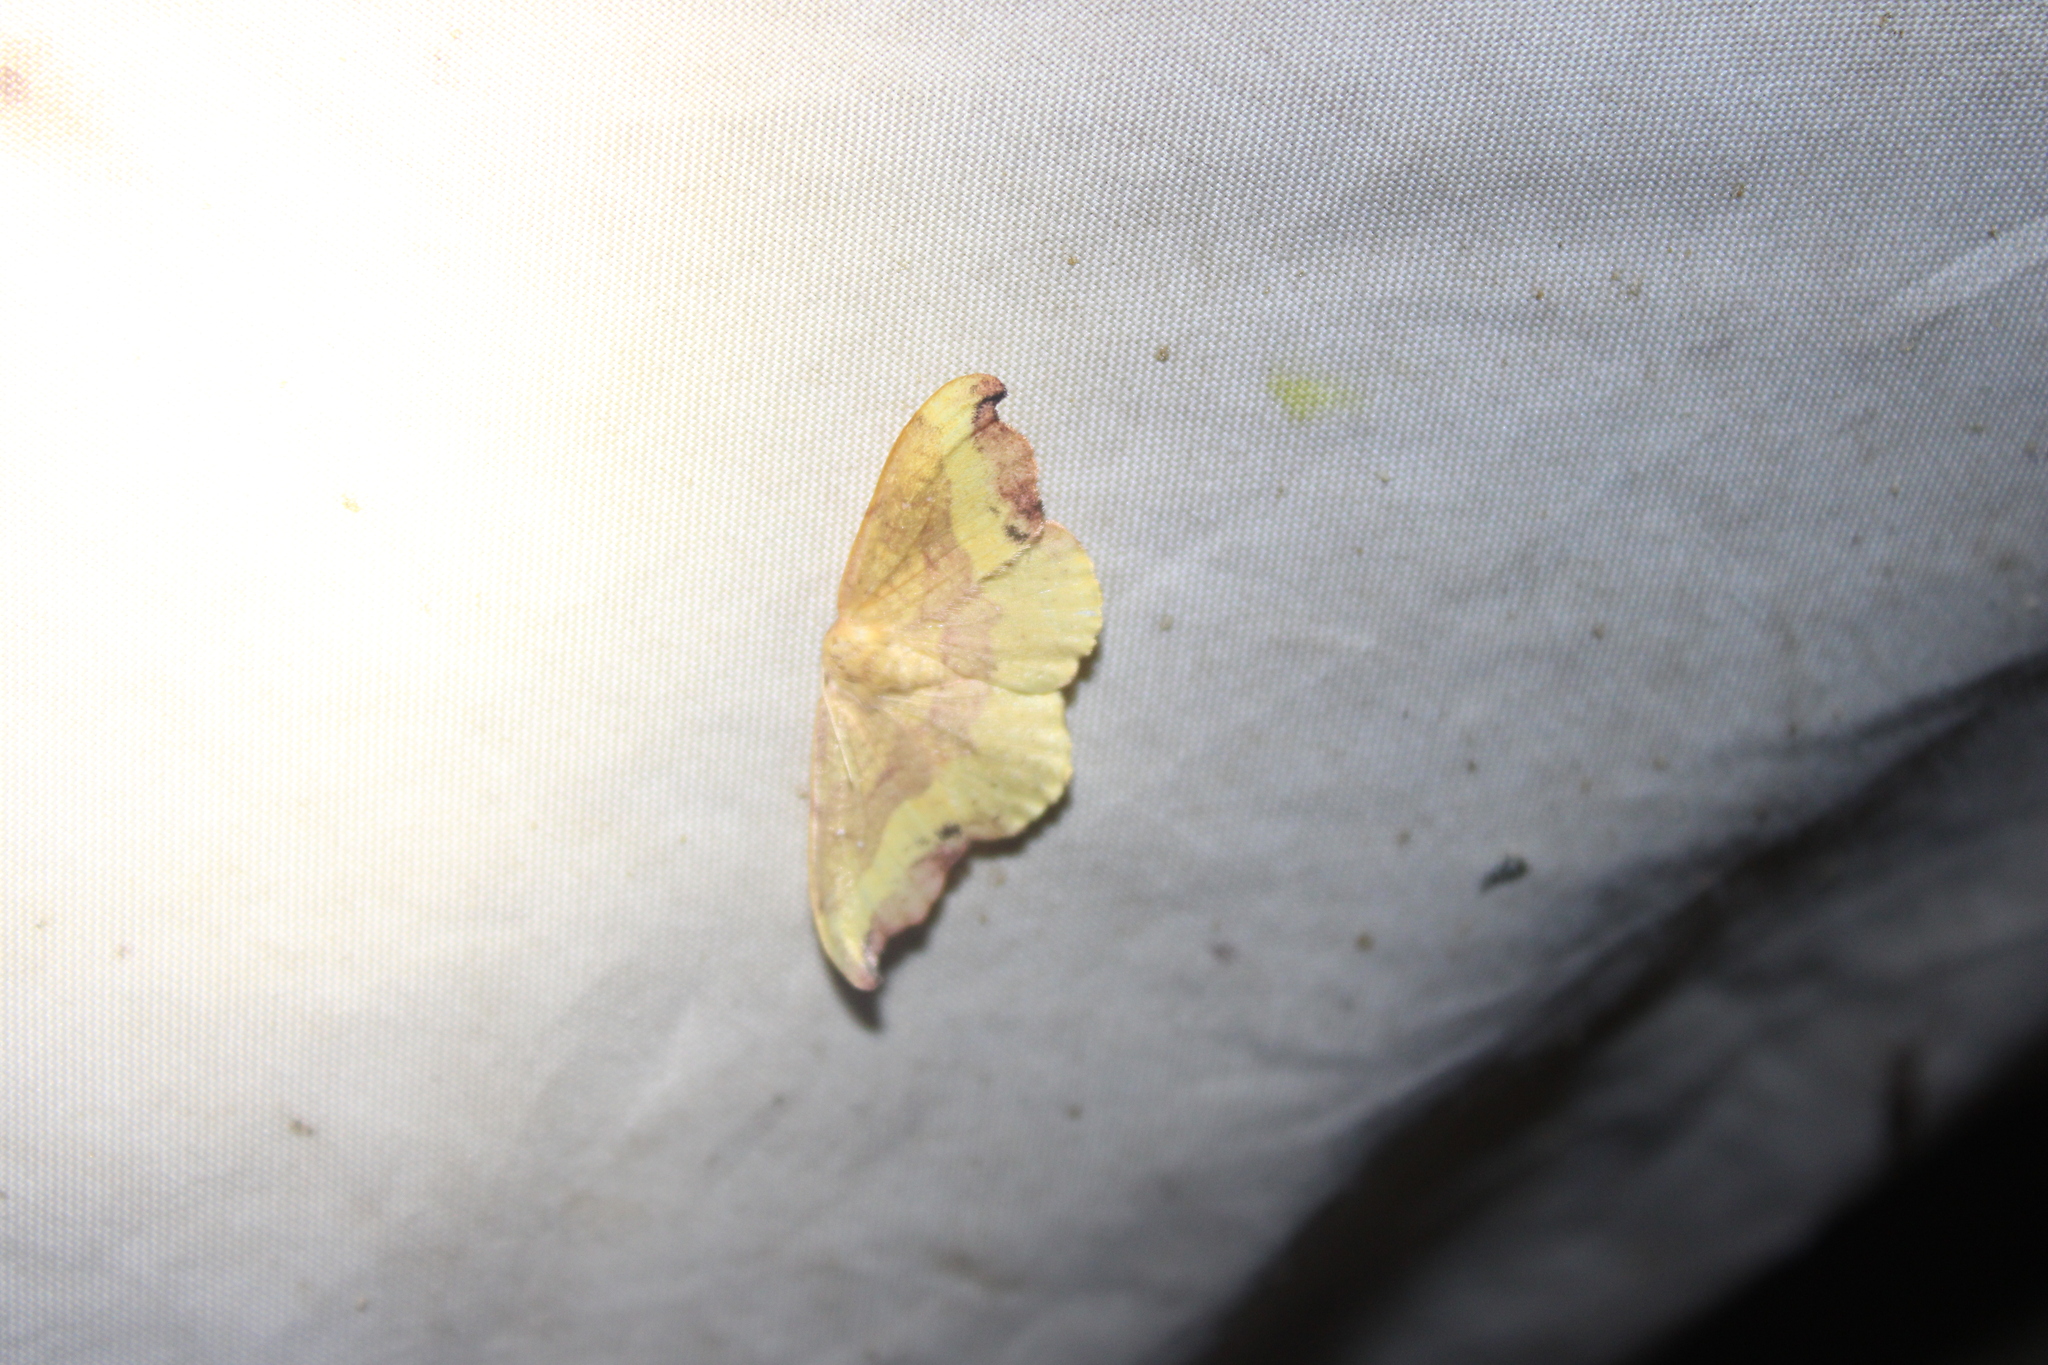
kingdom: Animalia
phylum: Arthropoda
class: Insecta
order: Lepidoptera
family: Drepanidae
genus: Oreta
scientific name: Oreta rosea
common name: Rose hooktip
